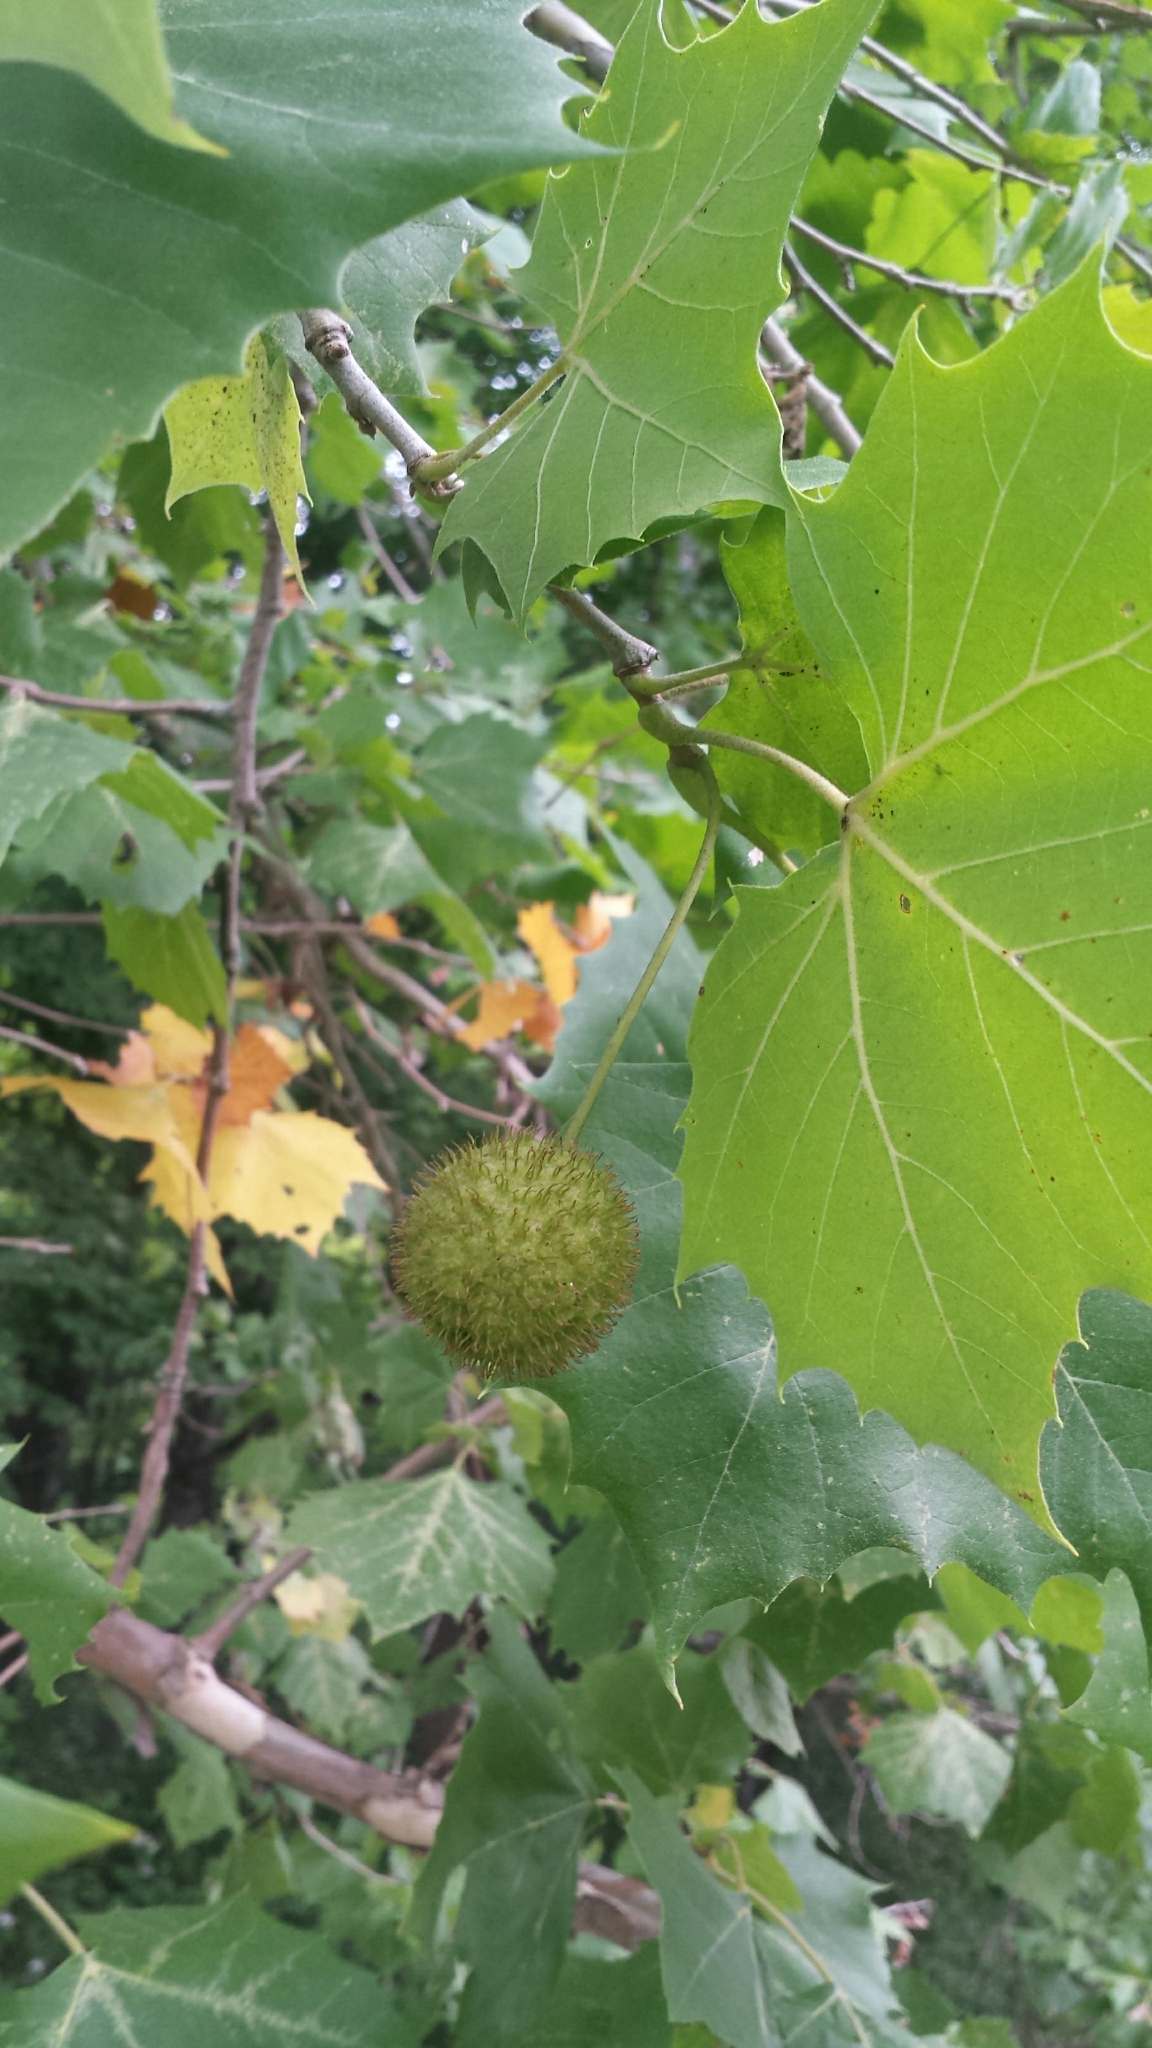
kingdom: Plantae
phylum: Tracheophyta
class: Magnoliopsida
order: Proteales
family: Platanaceae
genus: Platanus
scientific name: Platanus occidentalis
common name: American sycamore
